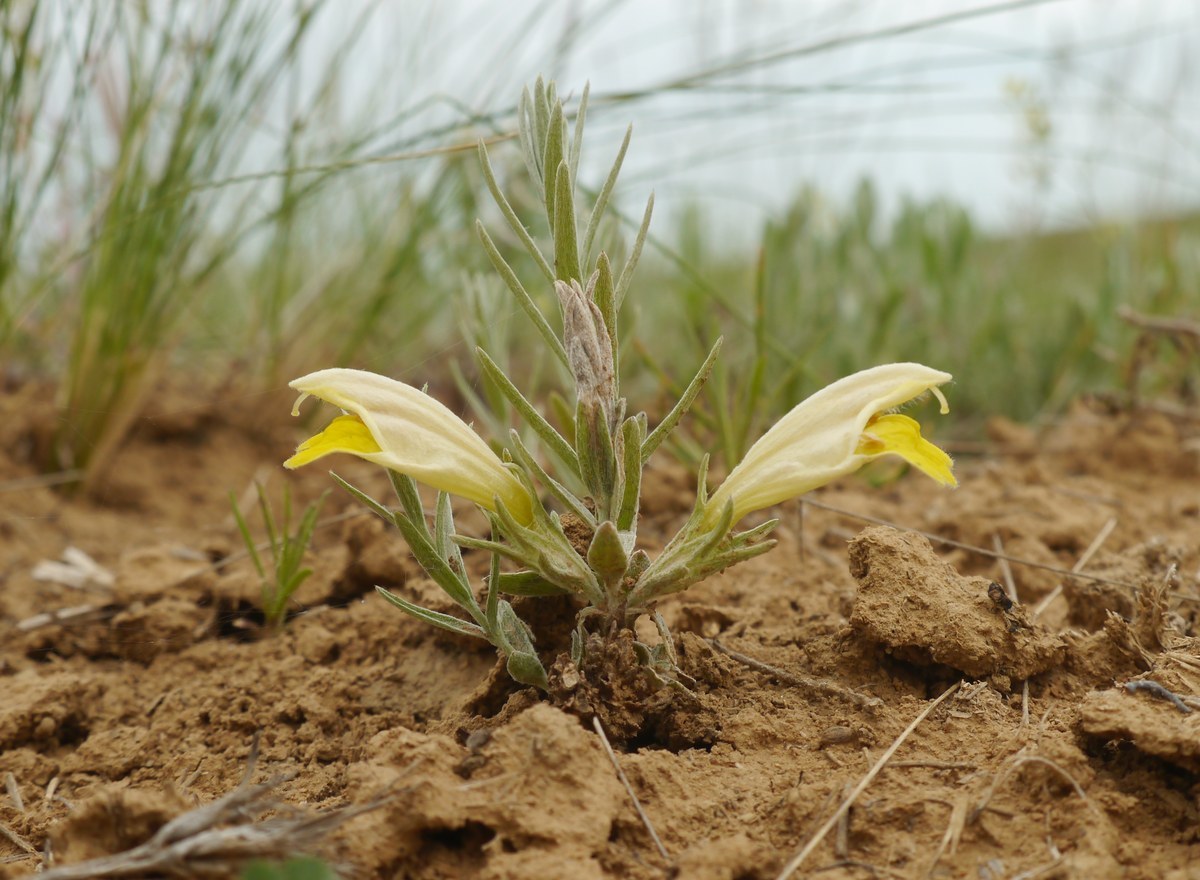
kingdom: Plantae
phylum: Tracheophyta
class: Magnoliopsida
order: Lamiales
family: Orobanchaceae
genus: Cymbaria
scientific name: Cymbaria borysthenica
